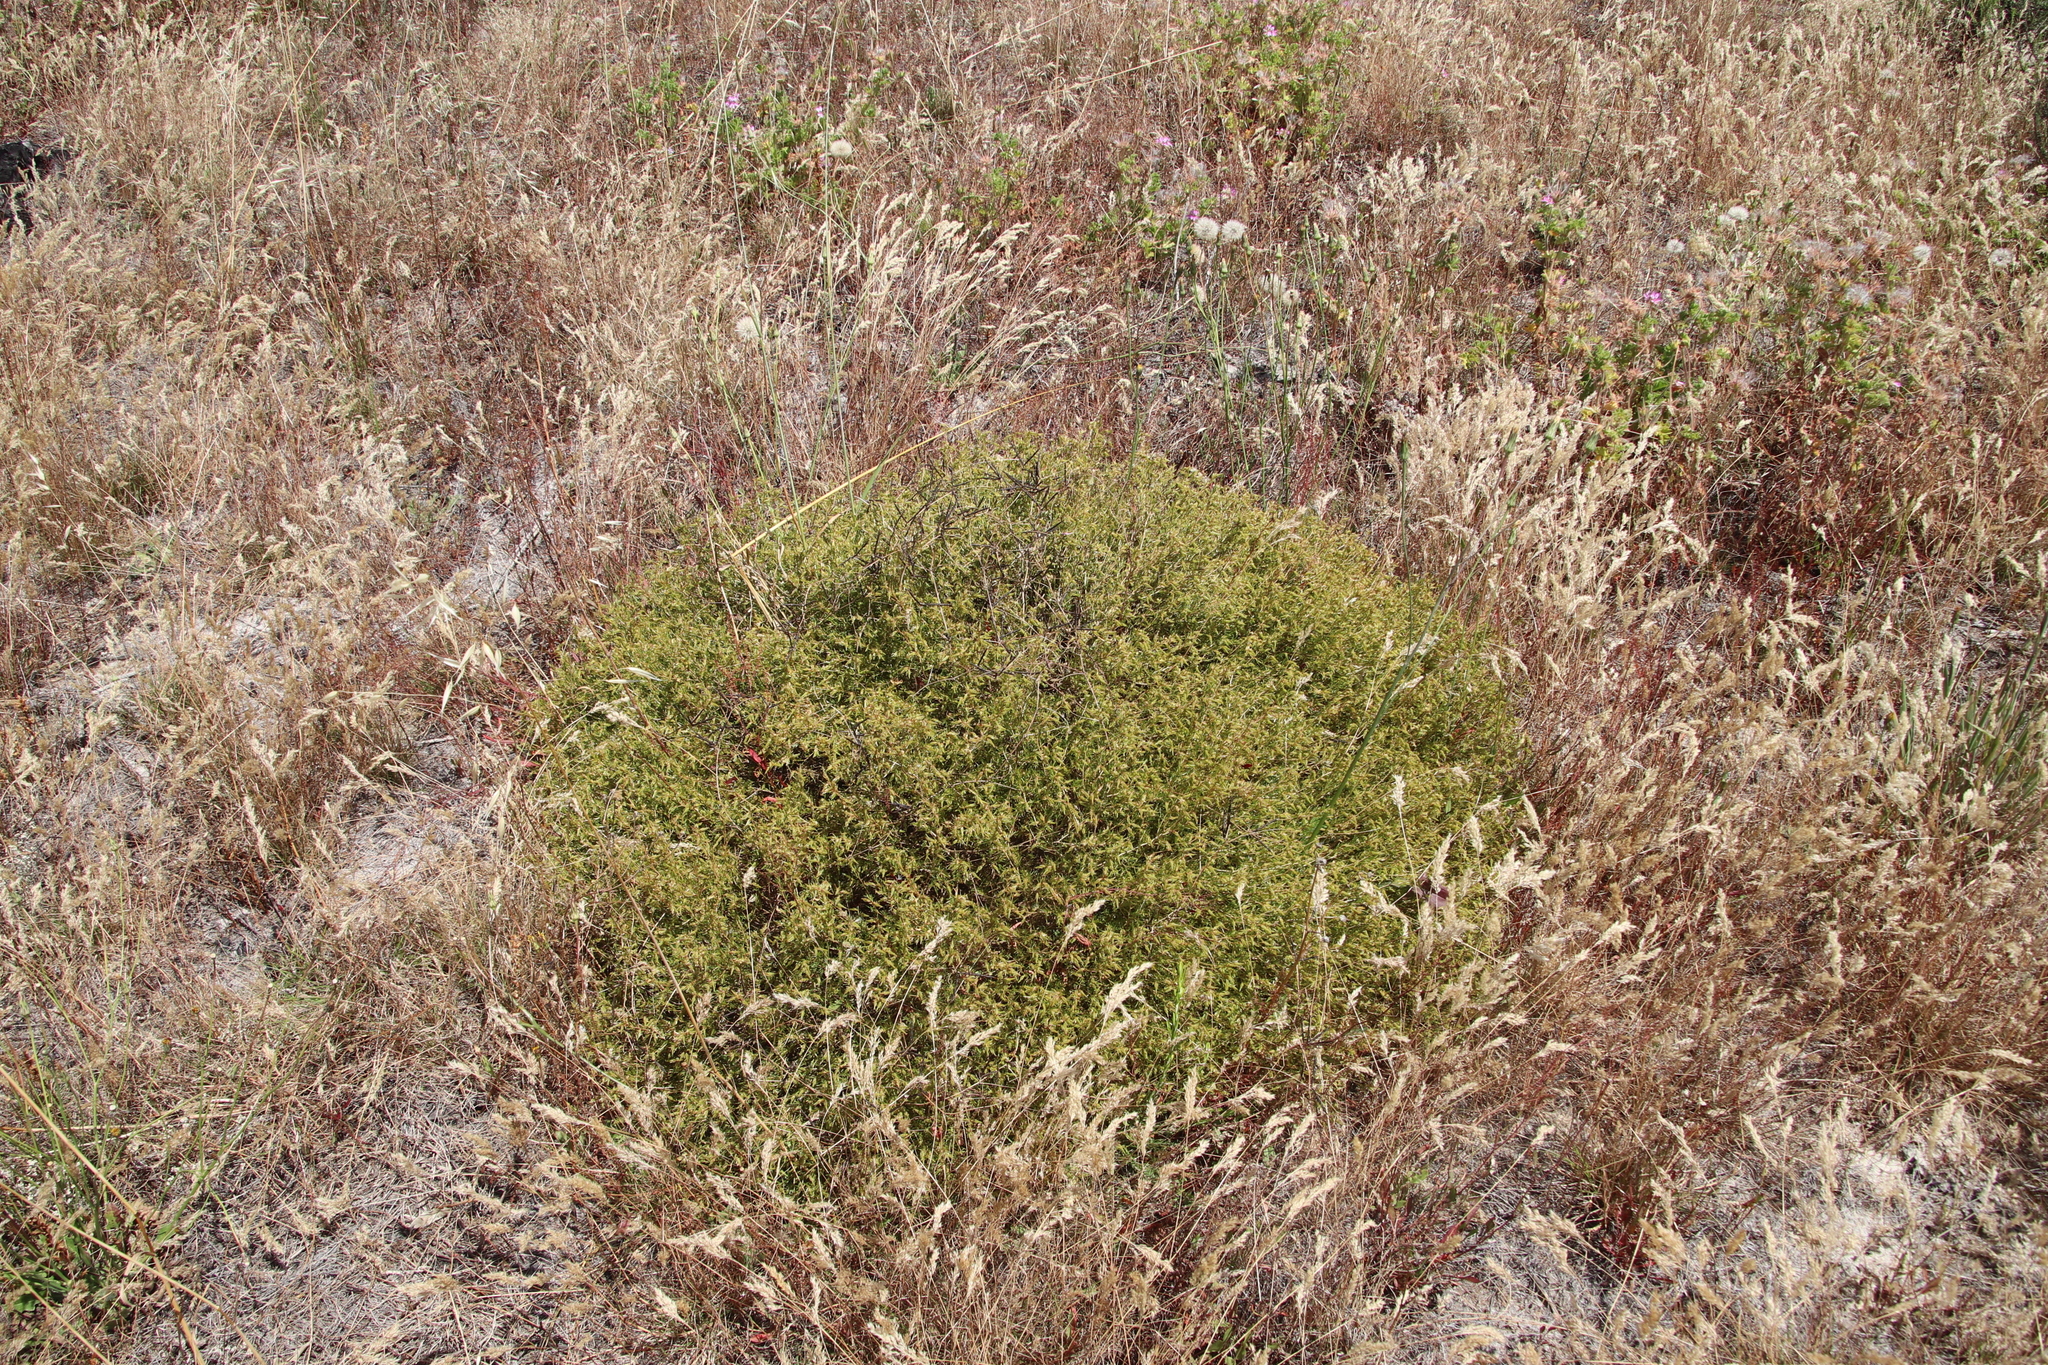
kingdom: Plantae
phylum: Tracheophyta
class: Magnoliopsida
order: Fabales
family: Fabaceae
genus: Aspalathus
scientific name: Aspalathus abietina
